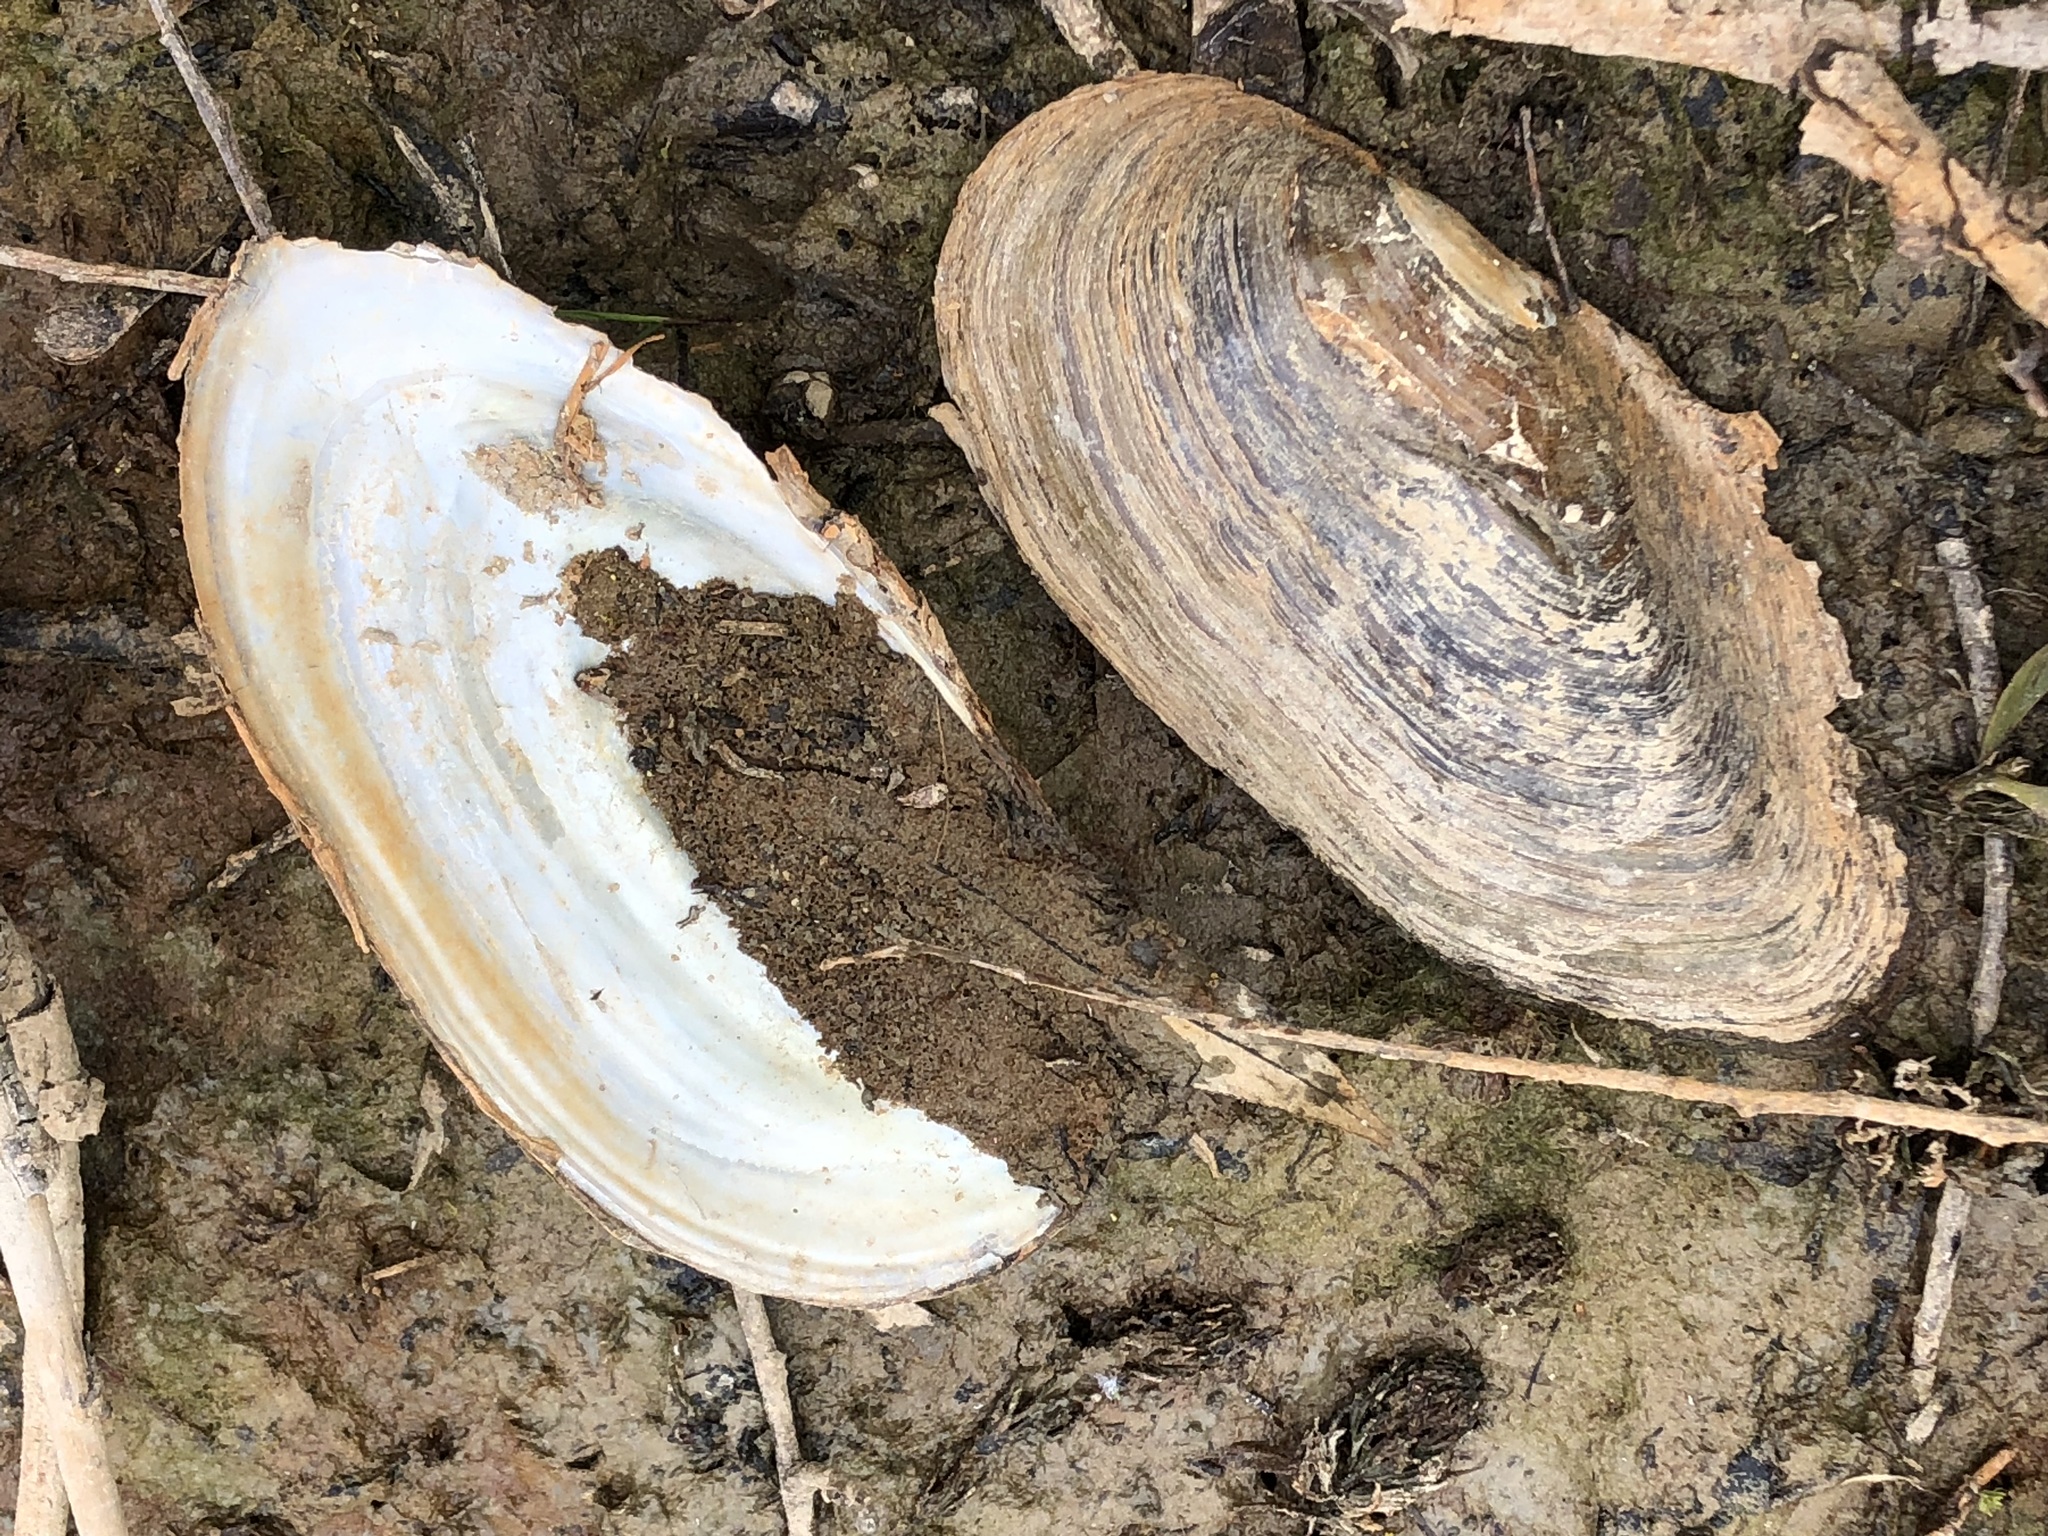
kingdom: Animalia
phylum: Mollusca
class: Bivalvia
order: Unionida
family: Unionidae
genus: Anodonta
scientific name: Anodonta cygnea
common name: Swan mussel
